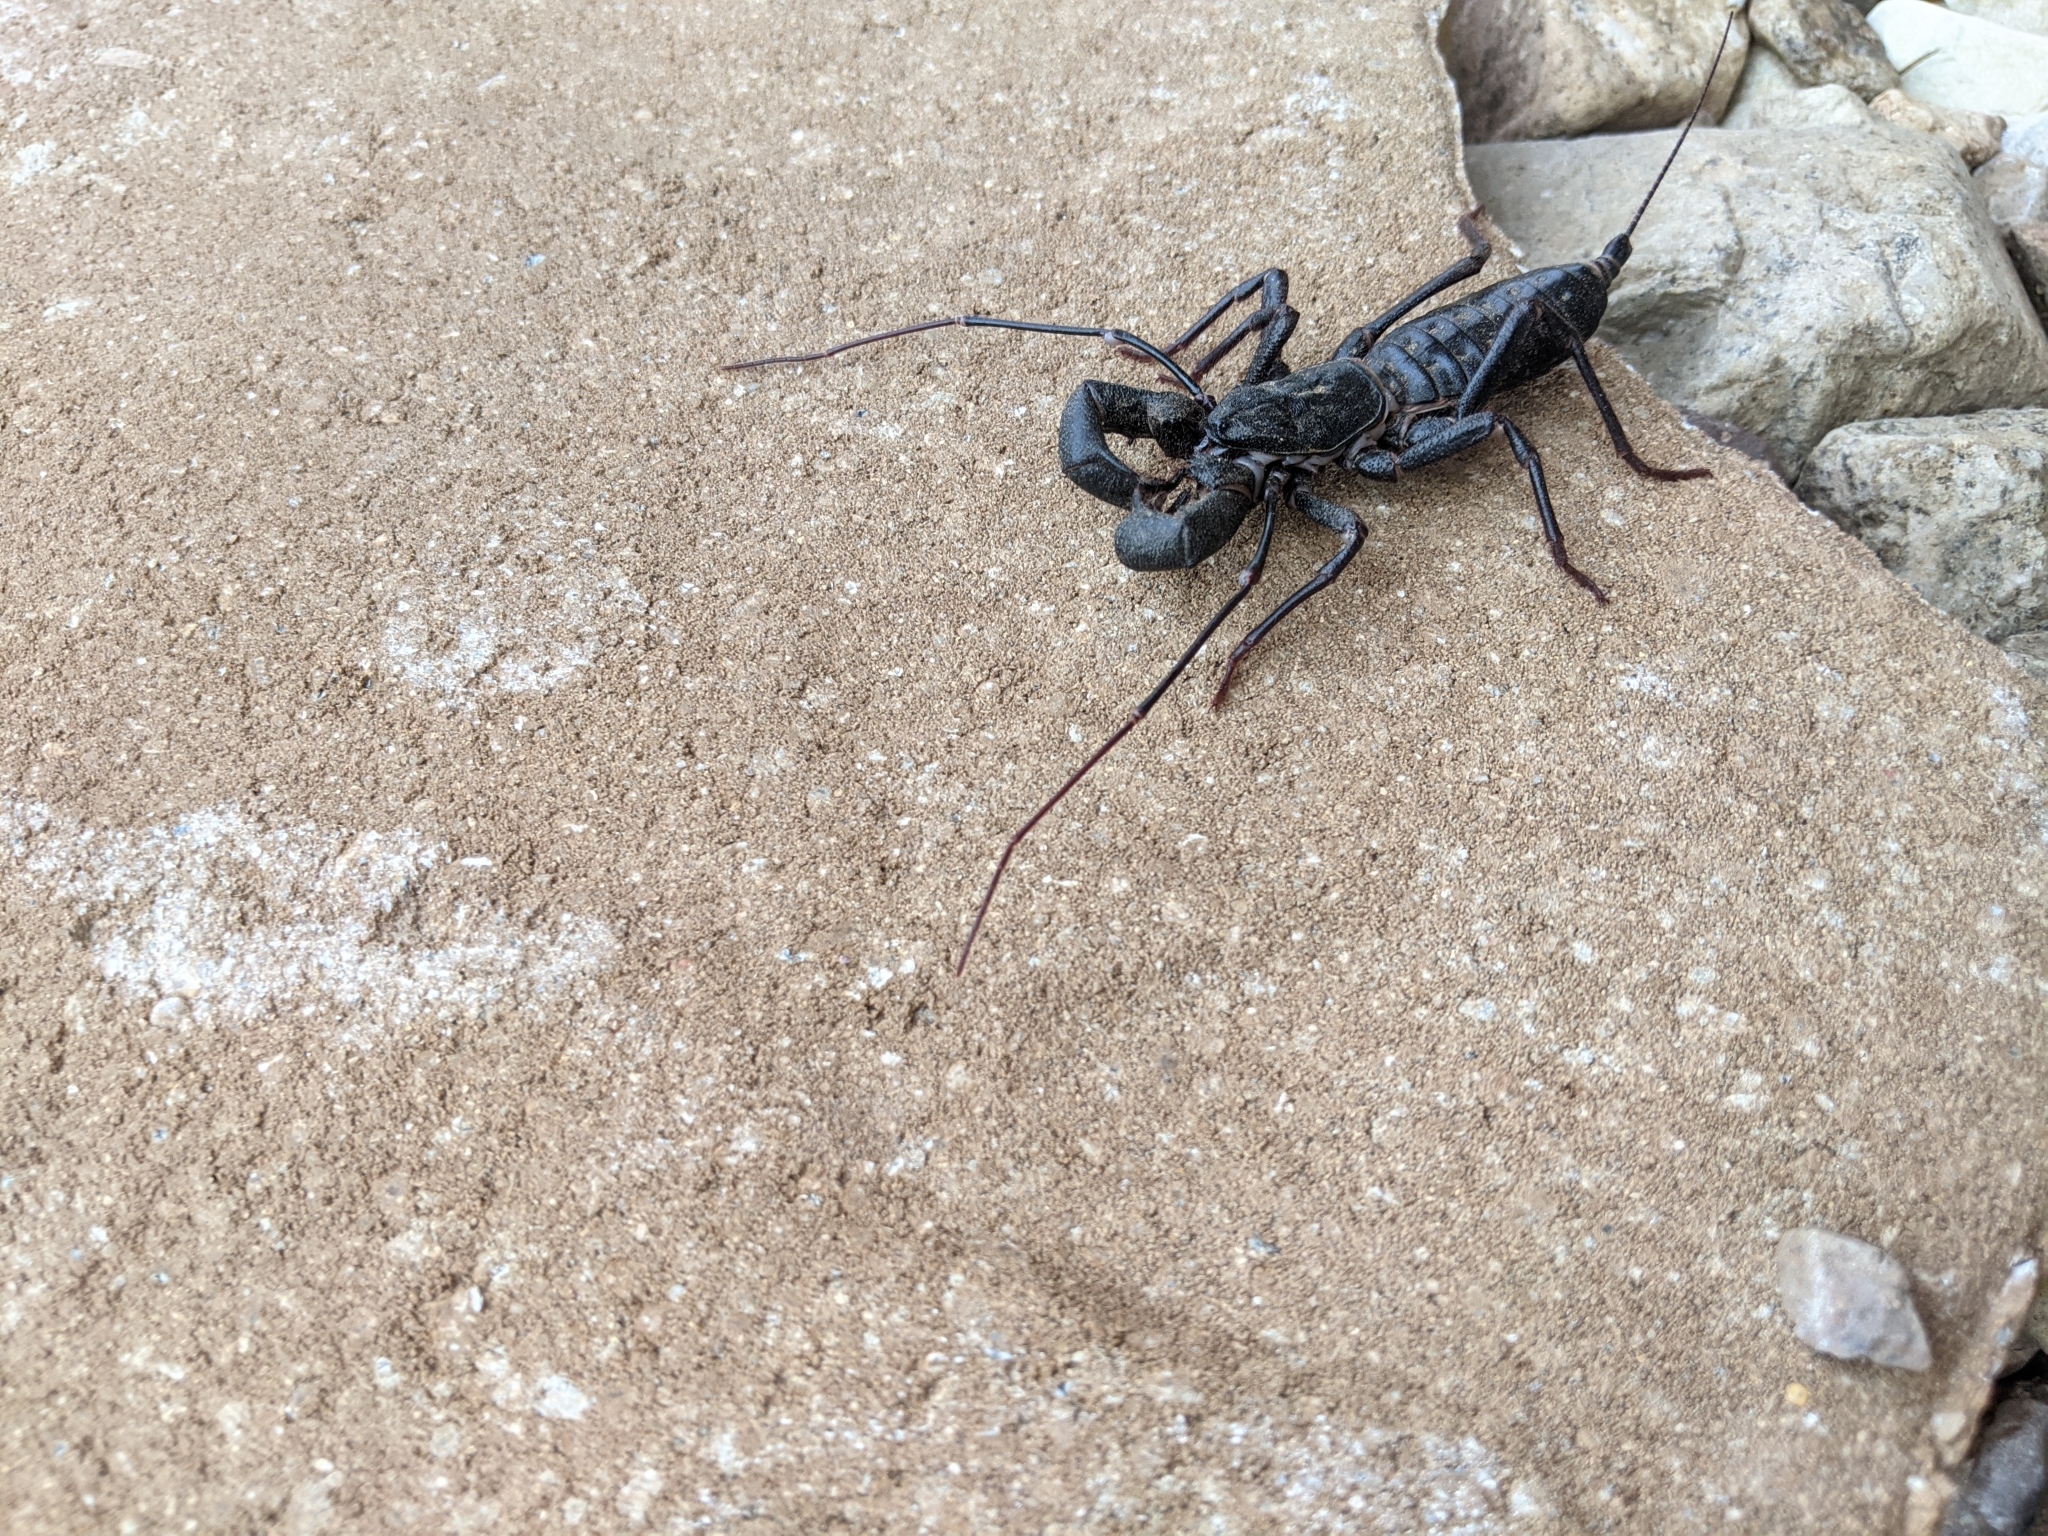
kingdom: Animalia
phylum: Arthropoda
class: Arachnida
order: Uropygi
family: Thelyphonidae
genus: Mastigoproctus
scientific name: Mastigoproctus giganteus
